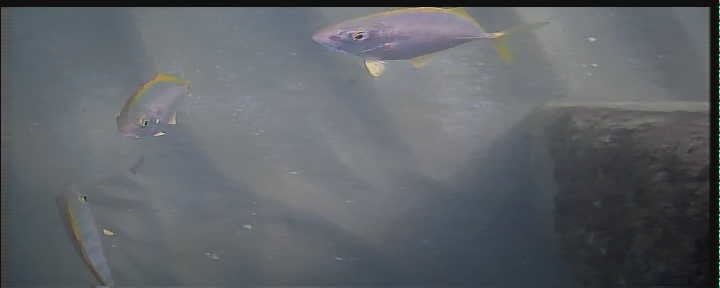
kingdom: Animalia
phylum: Chordata
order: Perciformes
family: Carangidae
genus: Carangoides
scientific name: Carangoides bartholomaei
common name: Yellow jack
